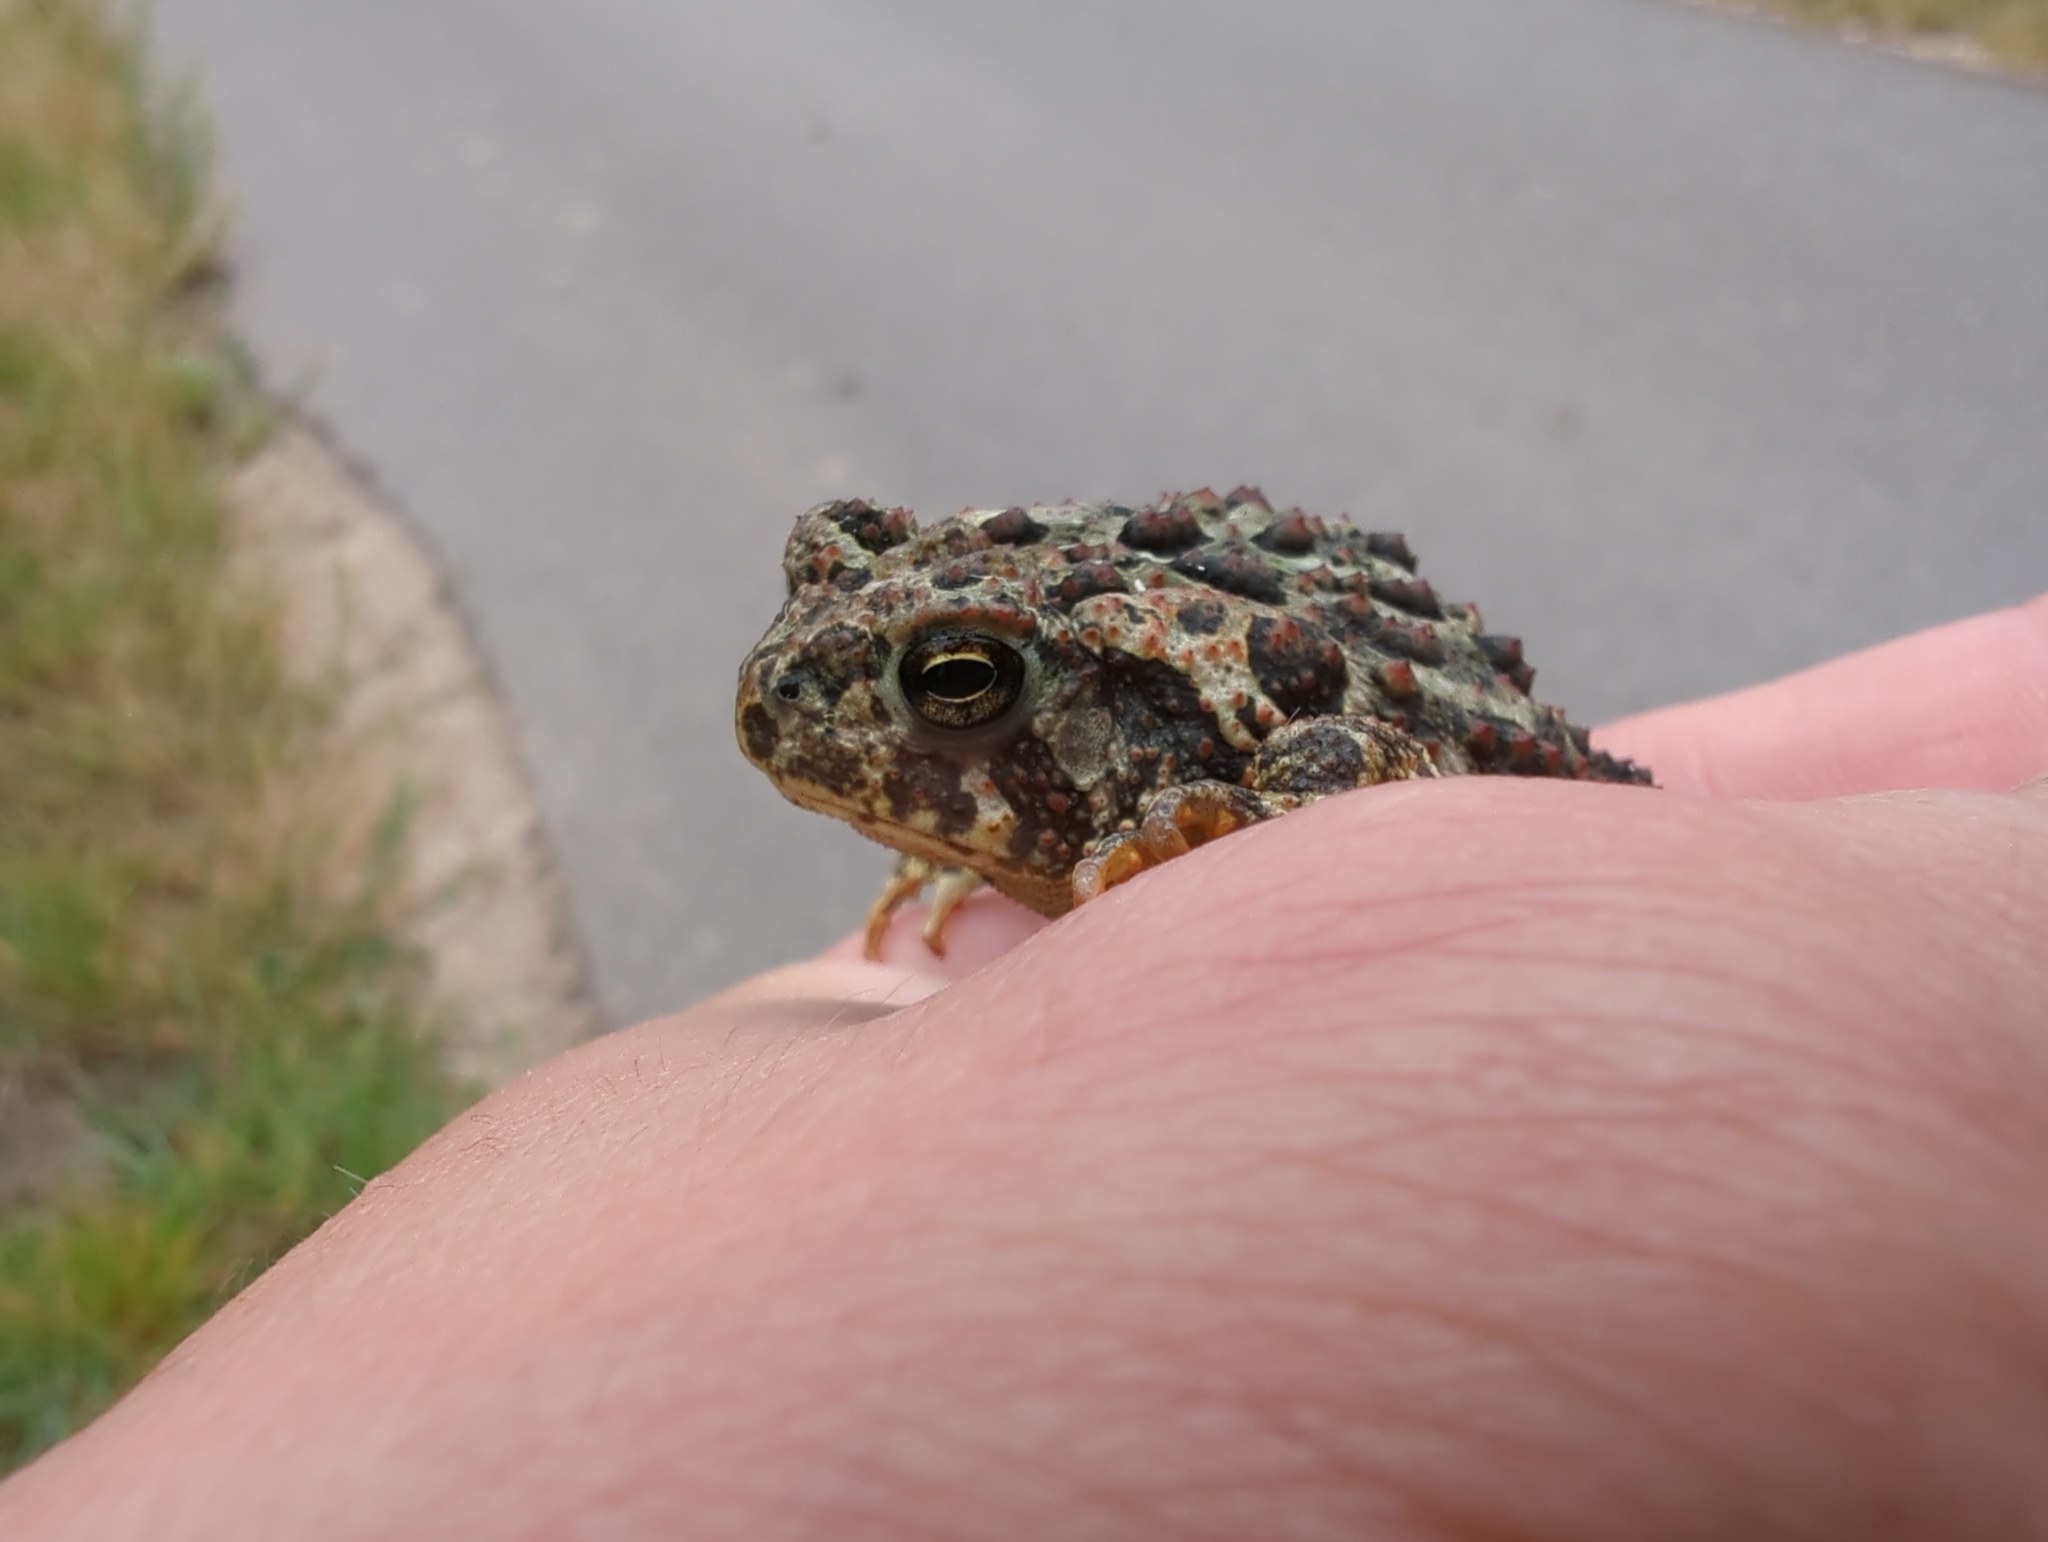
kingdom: Animalia
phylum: Chordata
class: Amphibia
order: Anura
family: Bufonidae
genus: Anaxyrus
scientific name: Anaxyrus hemiophrys
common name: Canadian toad
